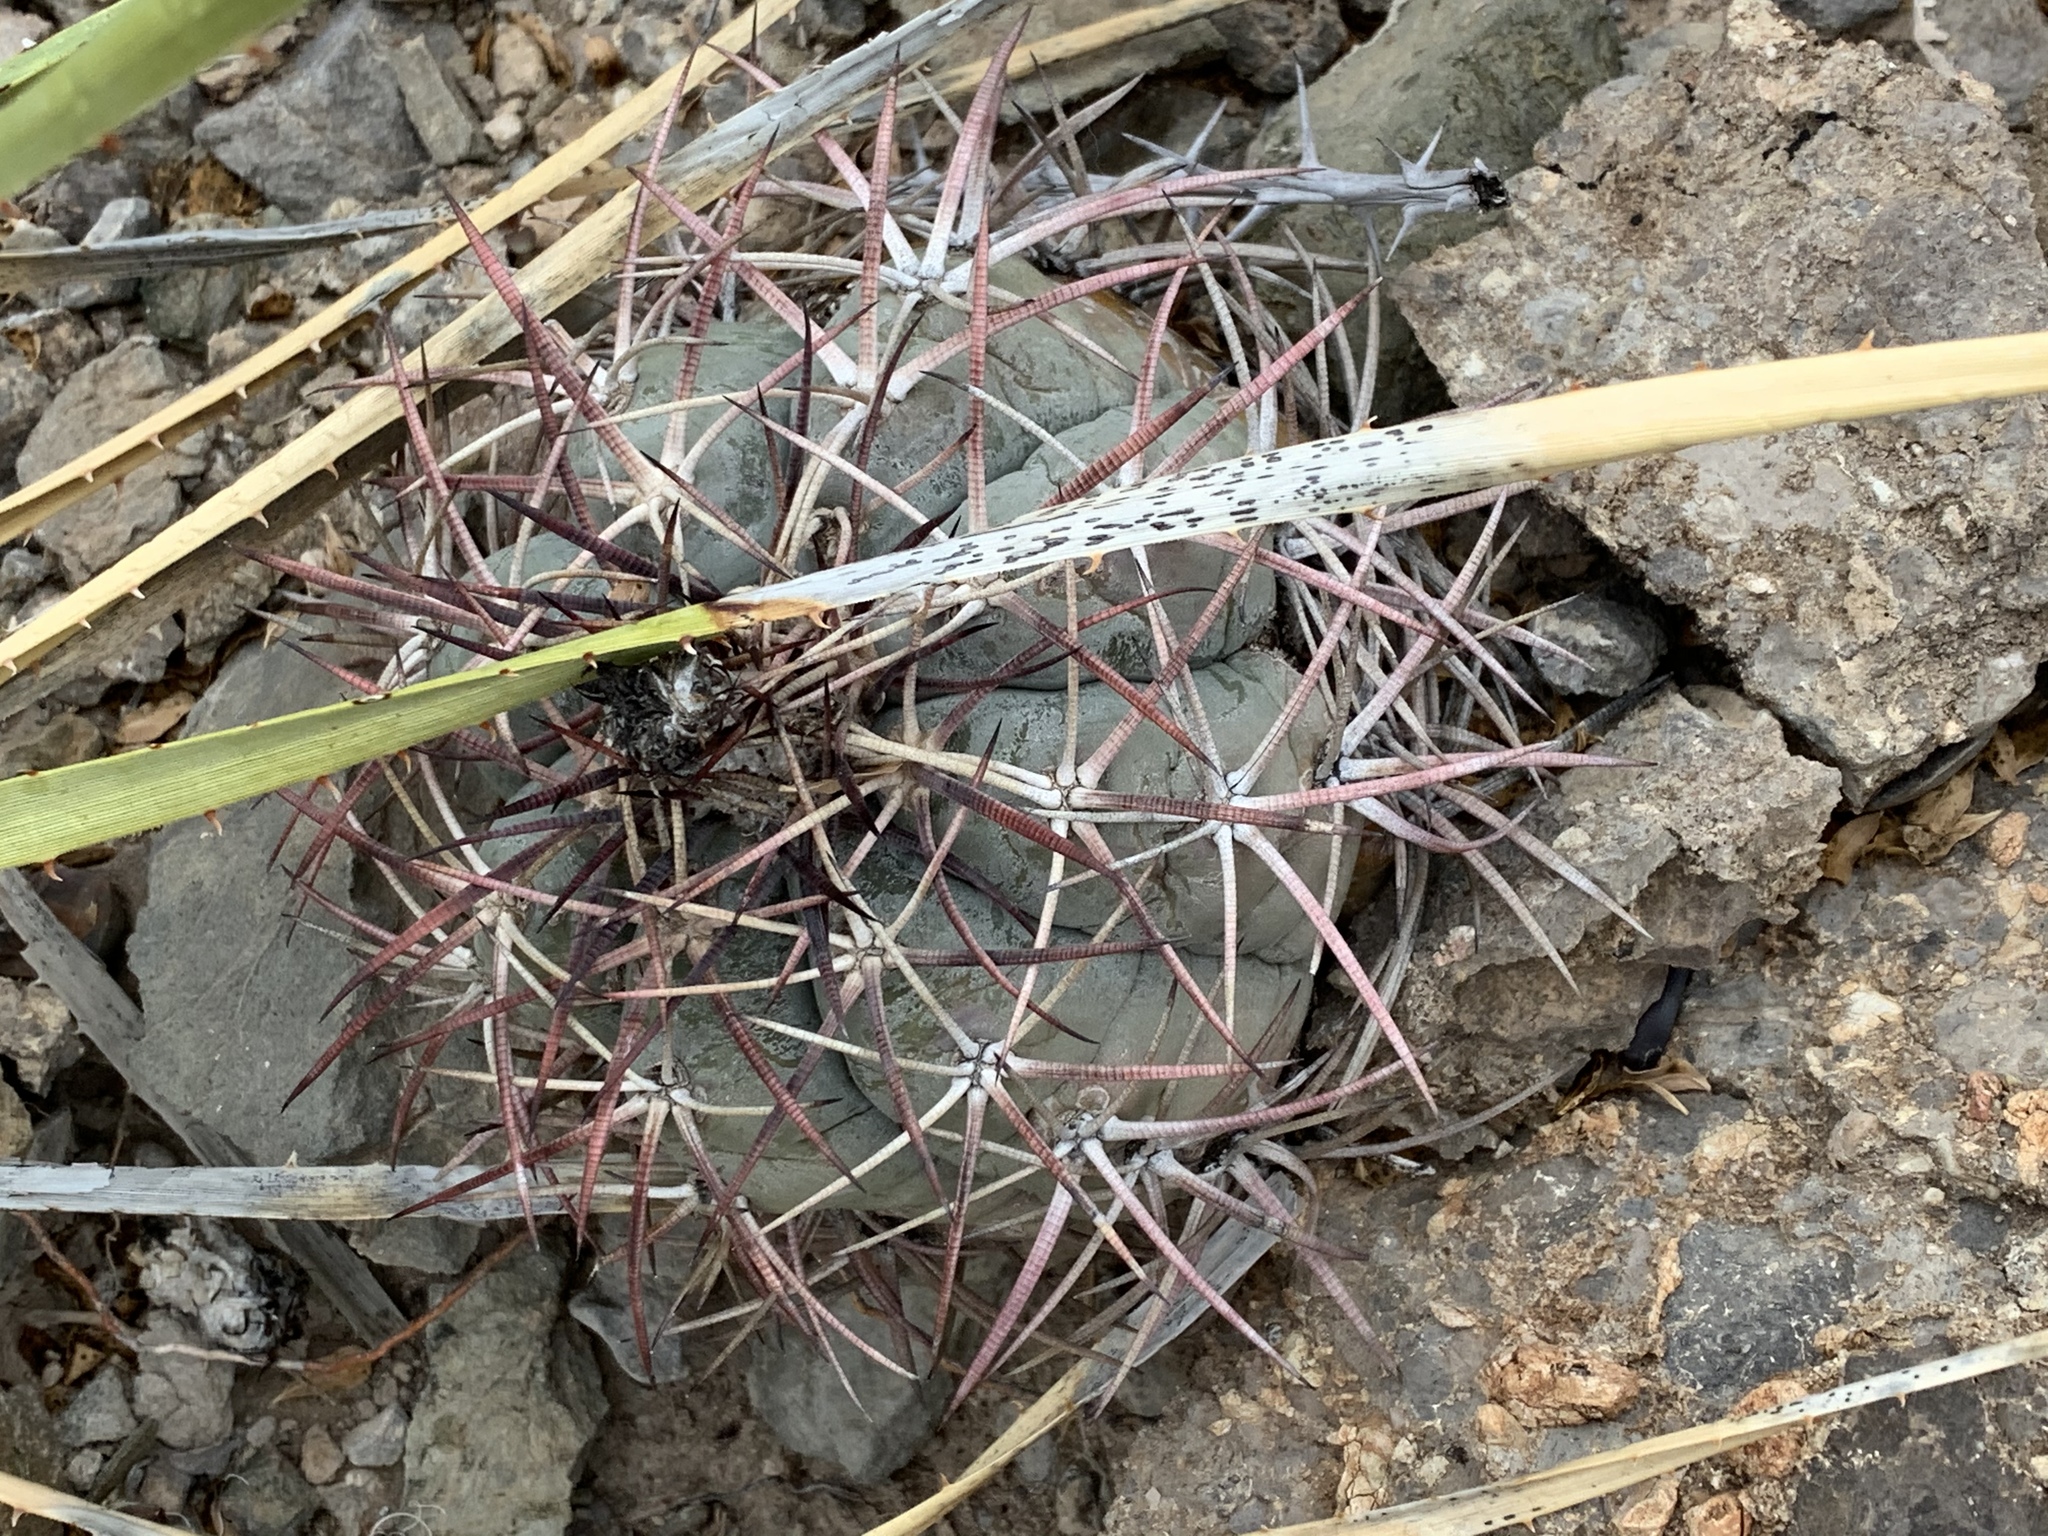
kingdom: Plantae
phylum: Tracheophyta
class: Magnoliopsida
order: Caryophyllales
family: Cactaceae
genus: Echinocactus
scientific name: Echinocactus horizonthalonius
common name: Devilshead
